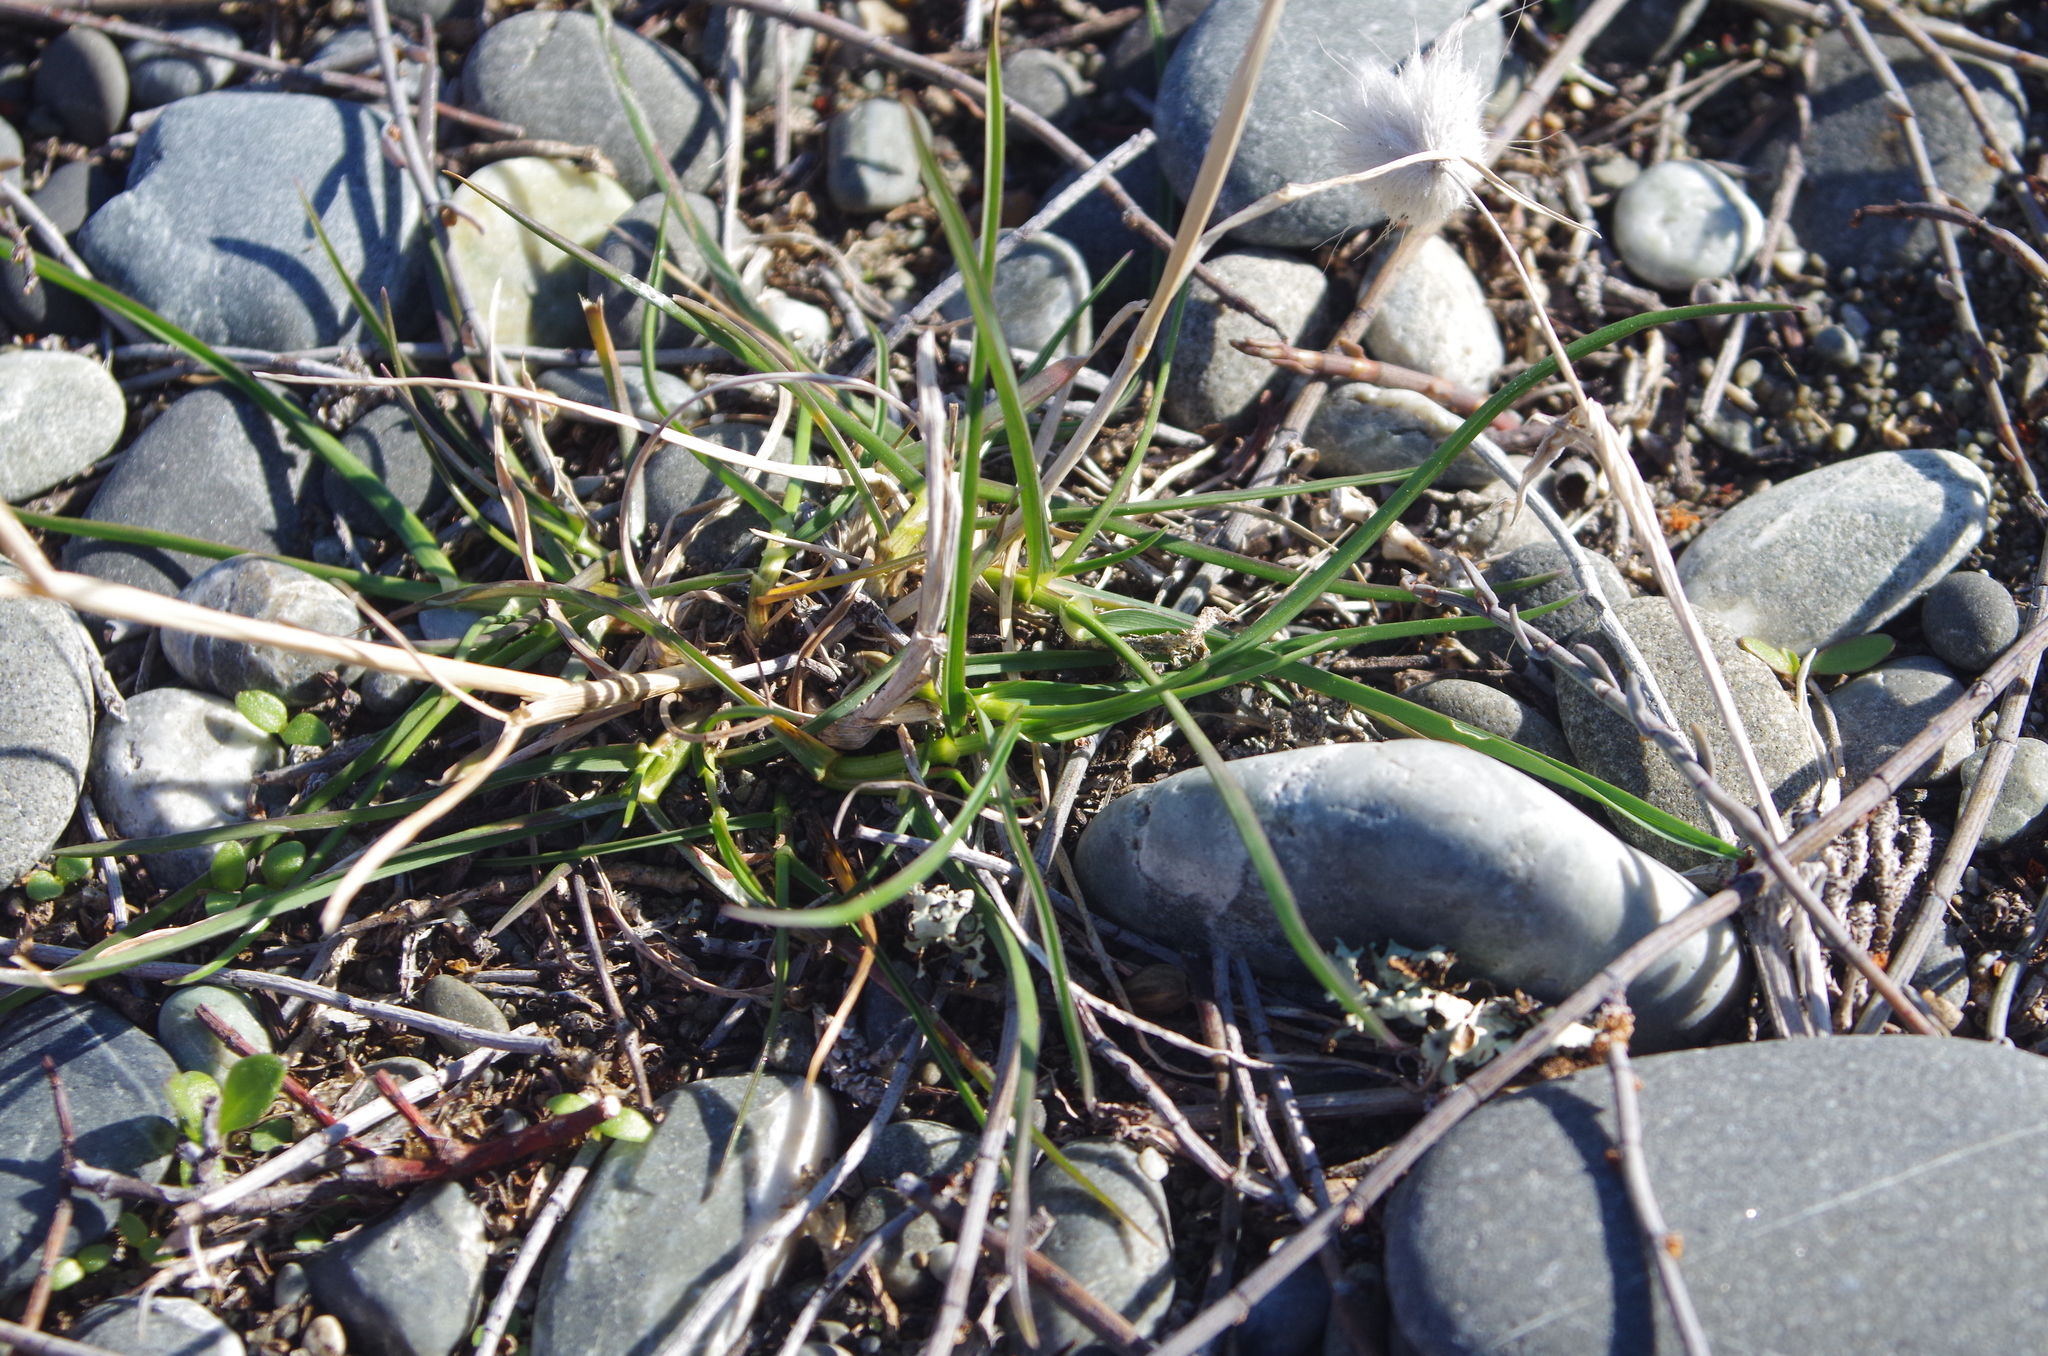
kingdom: Plantae
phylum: Tracheophyta
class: Liliopsida
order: Poales
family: Poaceae
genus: Lolium
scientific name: Lolium perenne
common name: Perennial ryegrass
